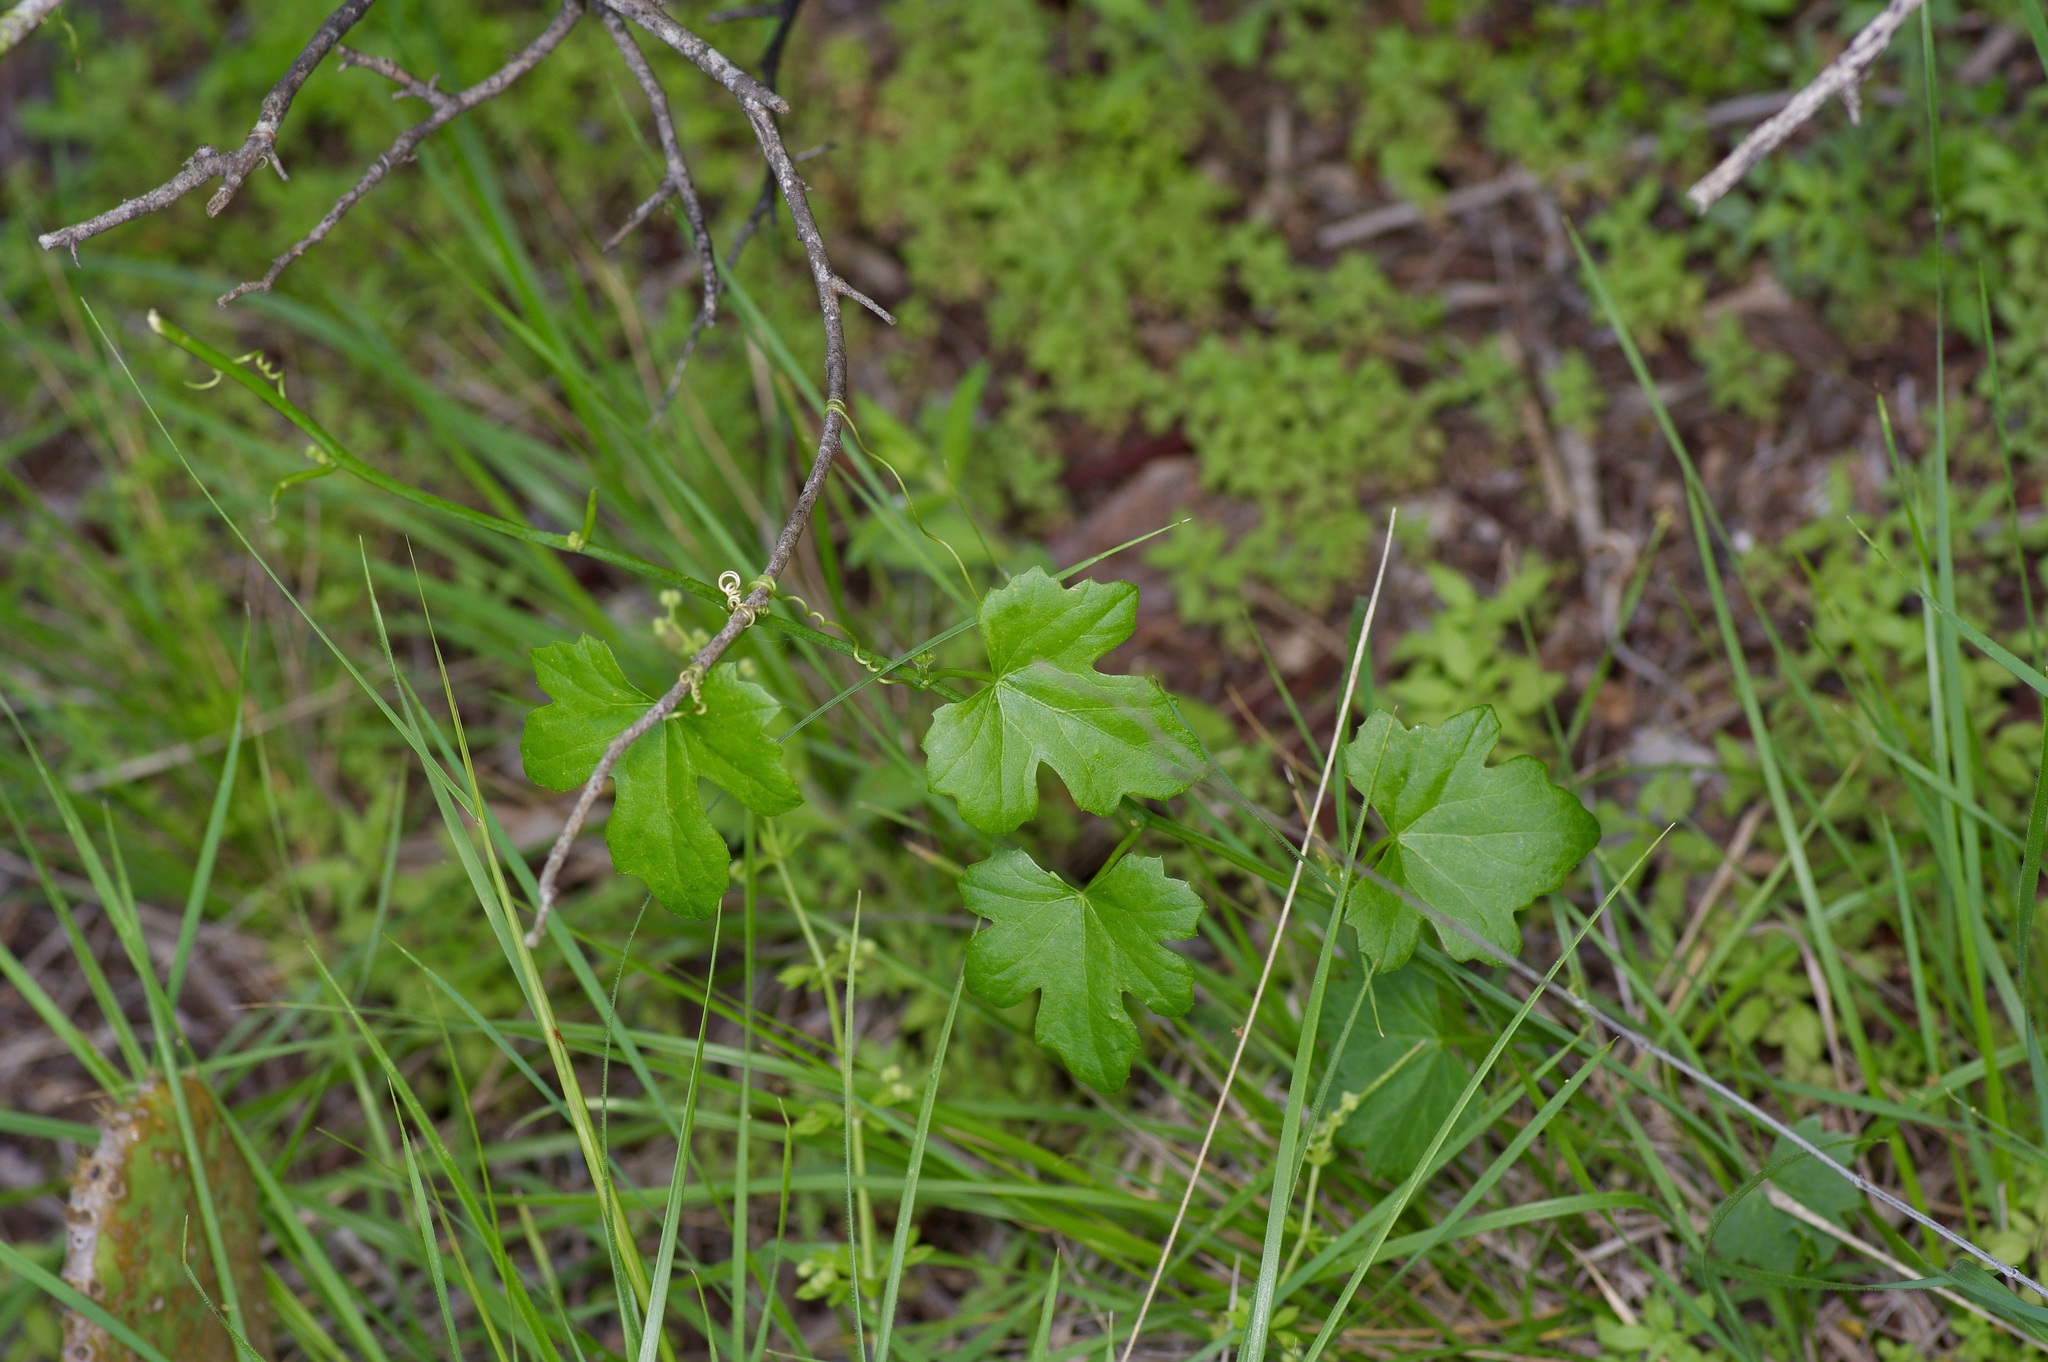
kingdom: Plantae
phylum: Tracheophyta
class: Magnoliopsida
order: Cucurbitales
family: Cucurbitaceae
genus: Melothria
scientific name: Melothria pendula
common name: Creeping-cucumber
